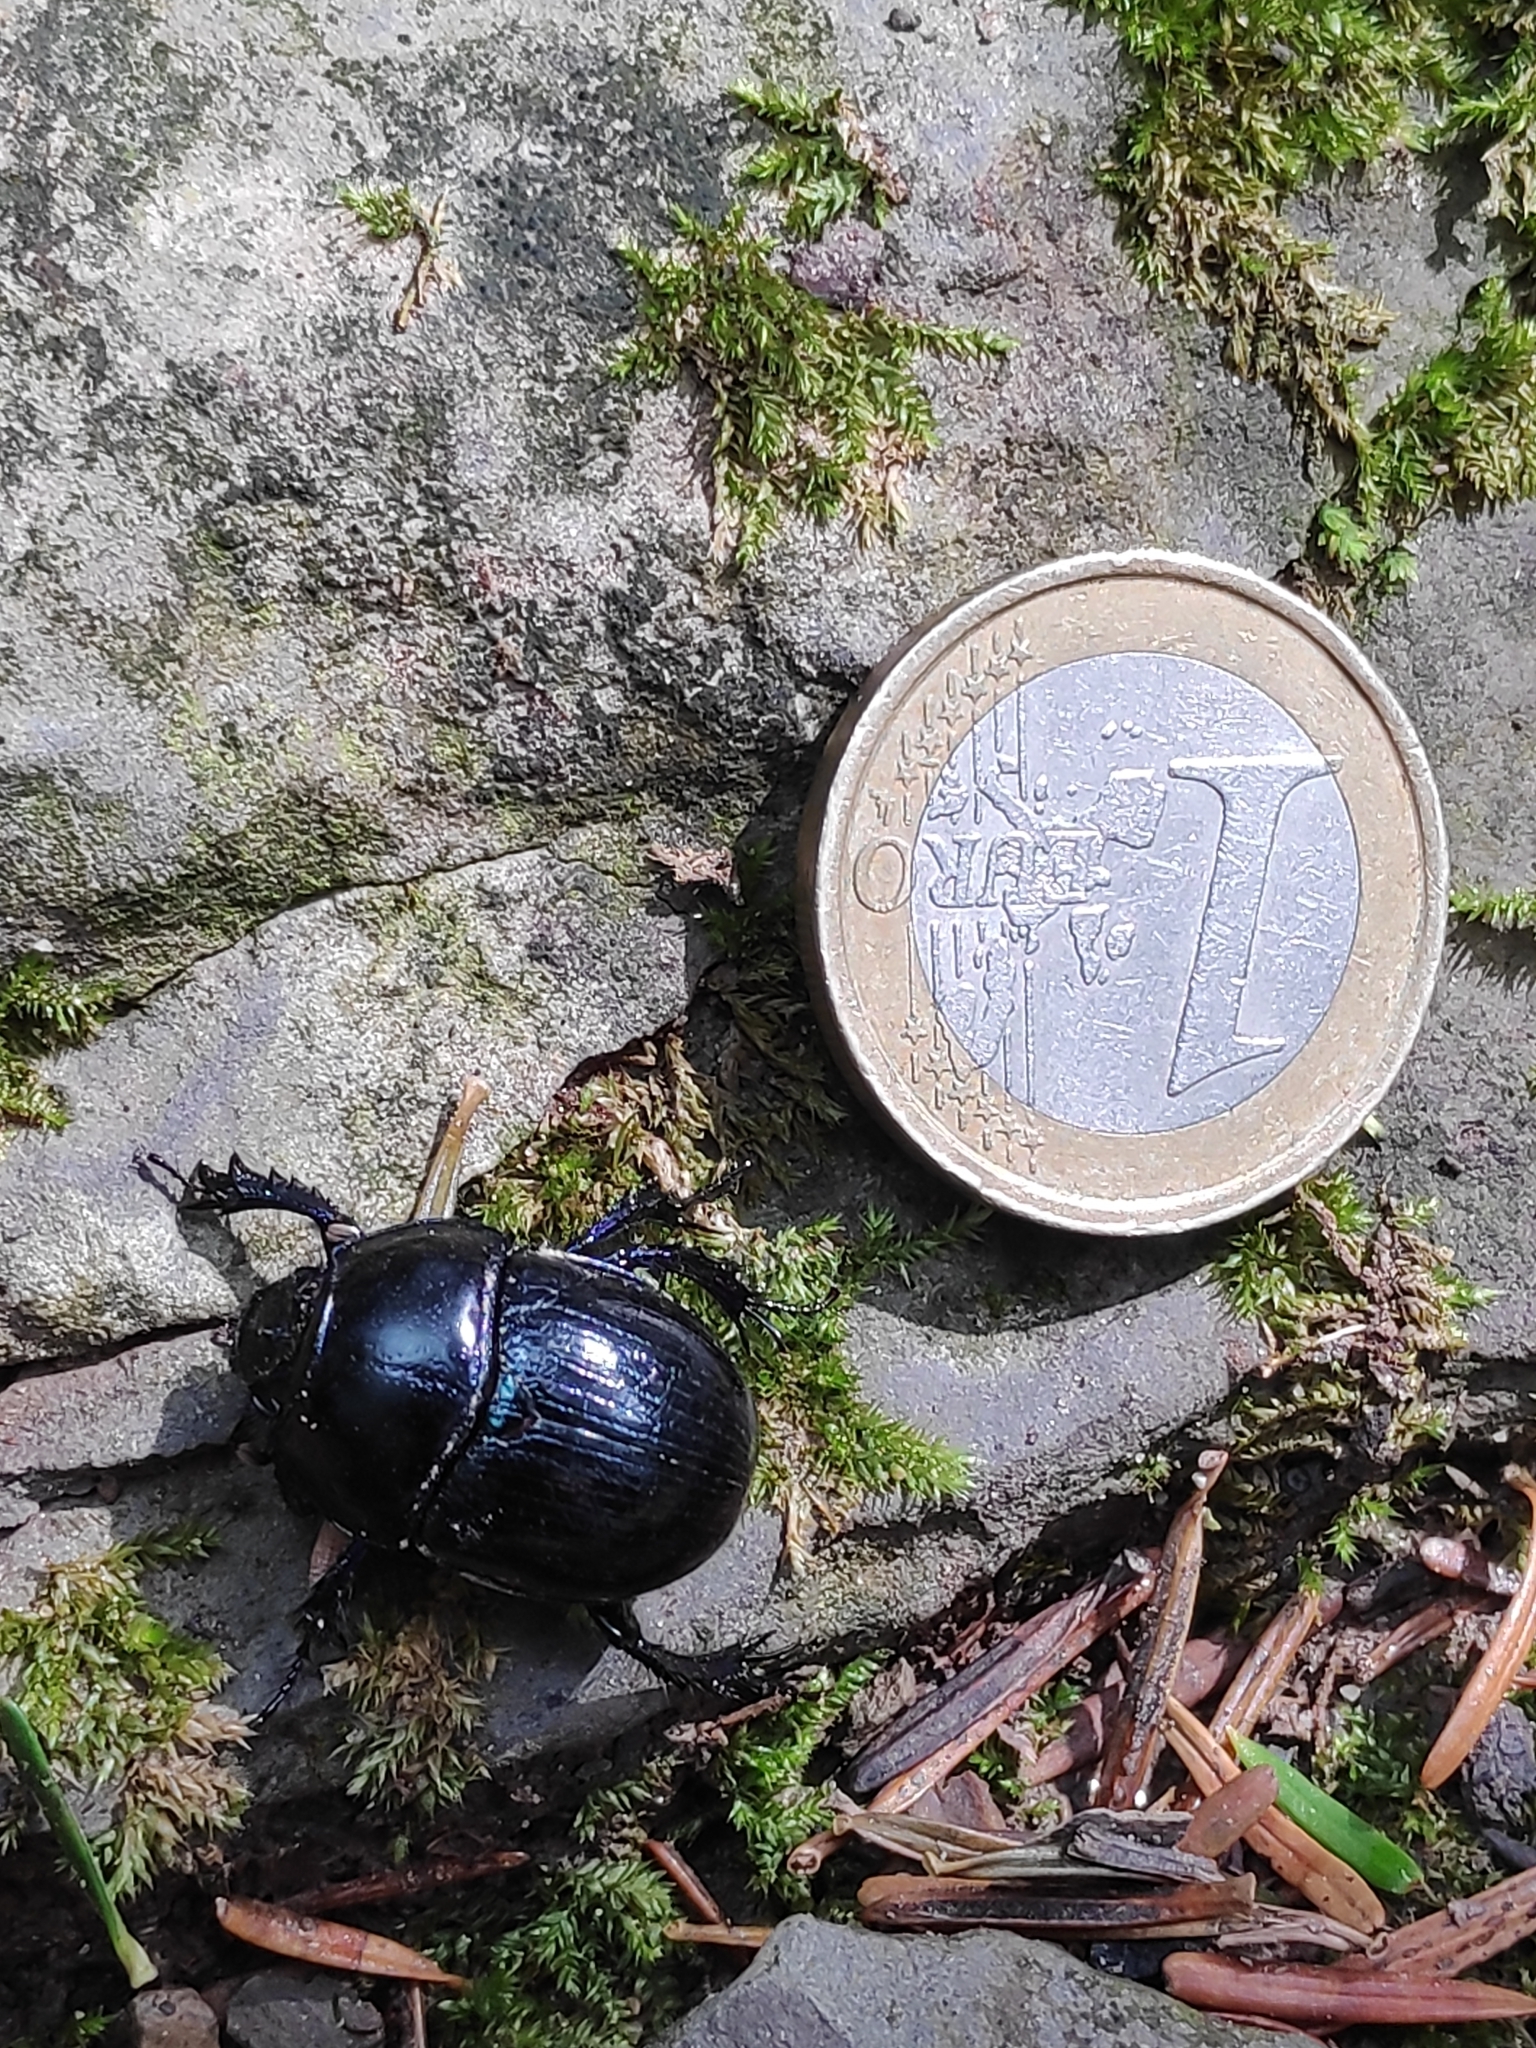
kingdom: Animalia
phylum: Arthropoda
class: Insecta
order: Coleoptera
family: Geotrupidae
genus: Anoplotrupes
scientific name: Anoplotrupes stercorosus
